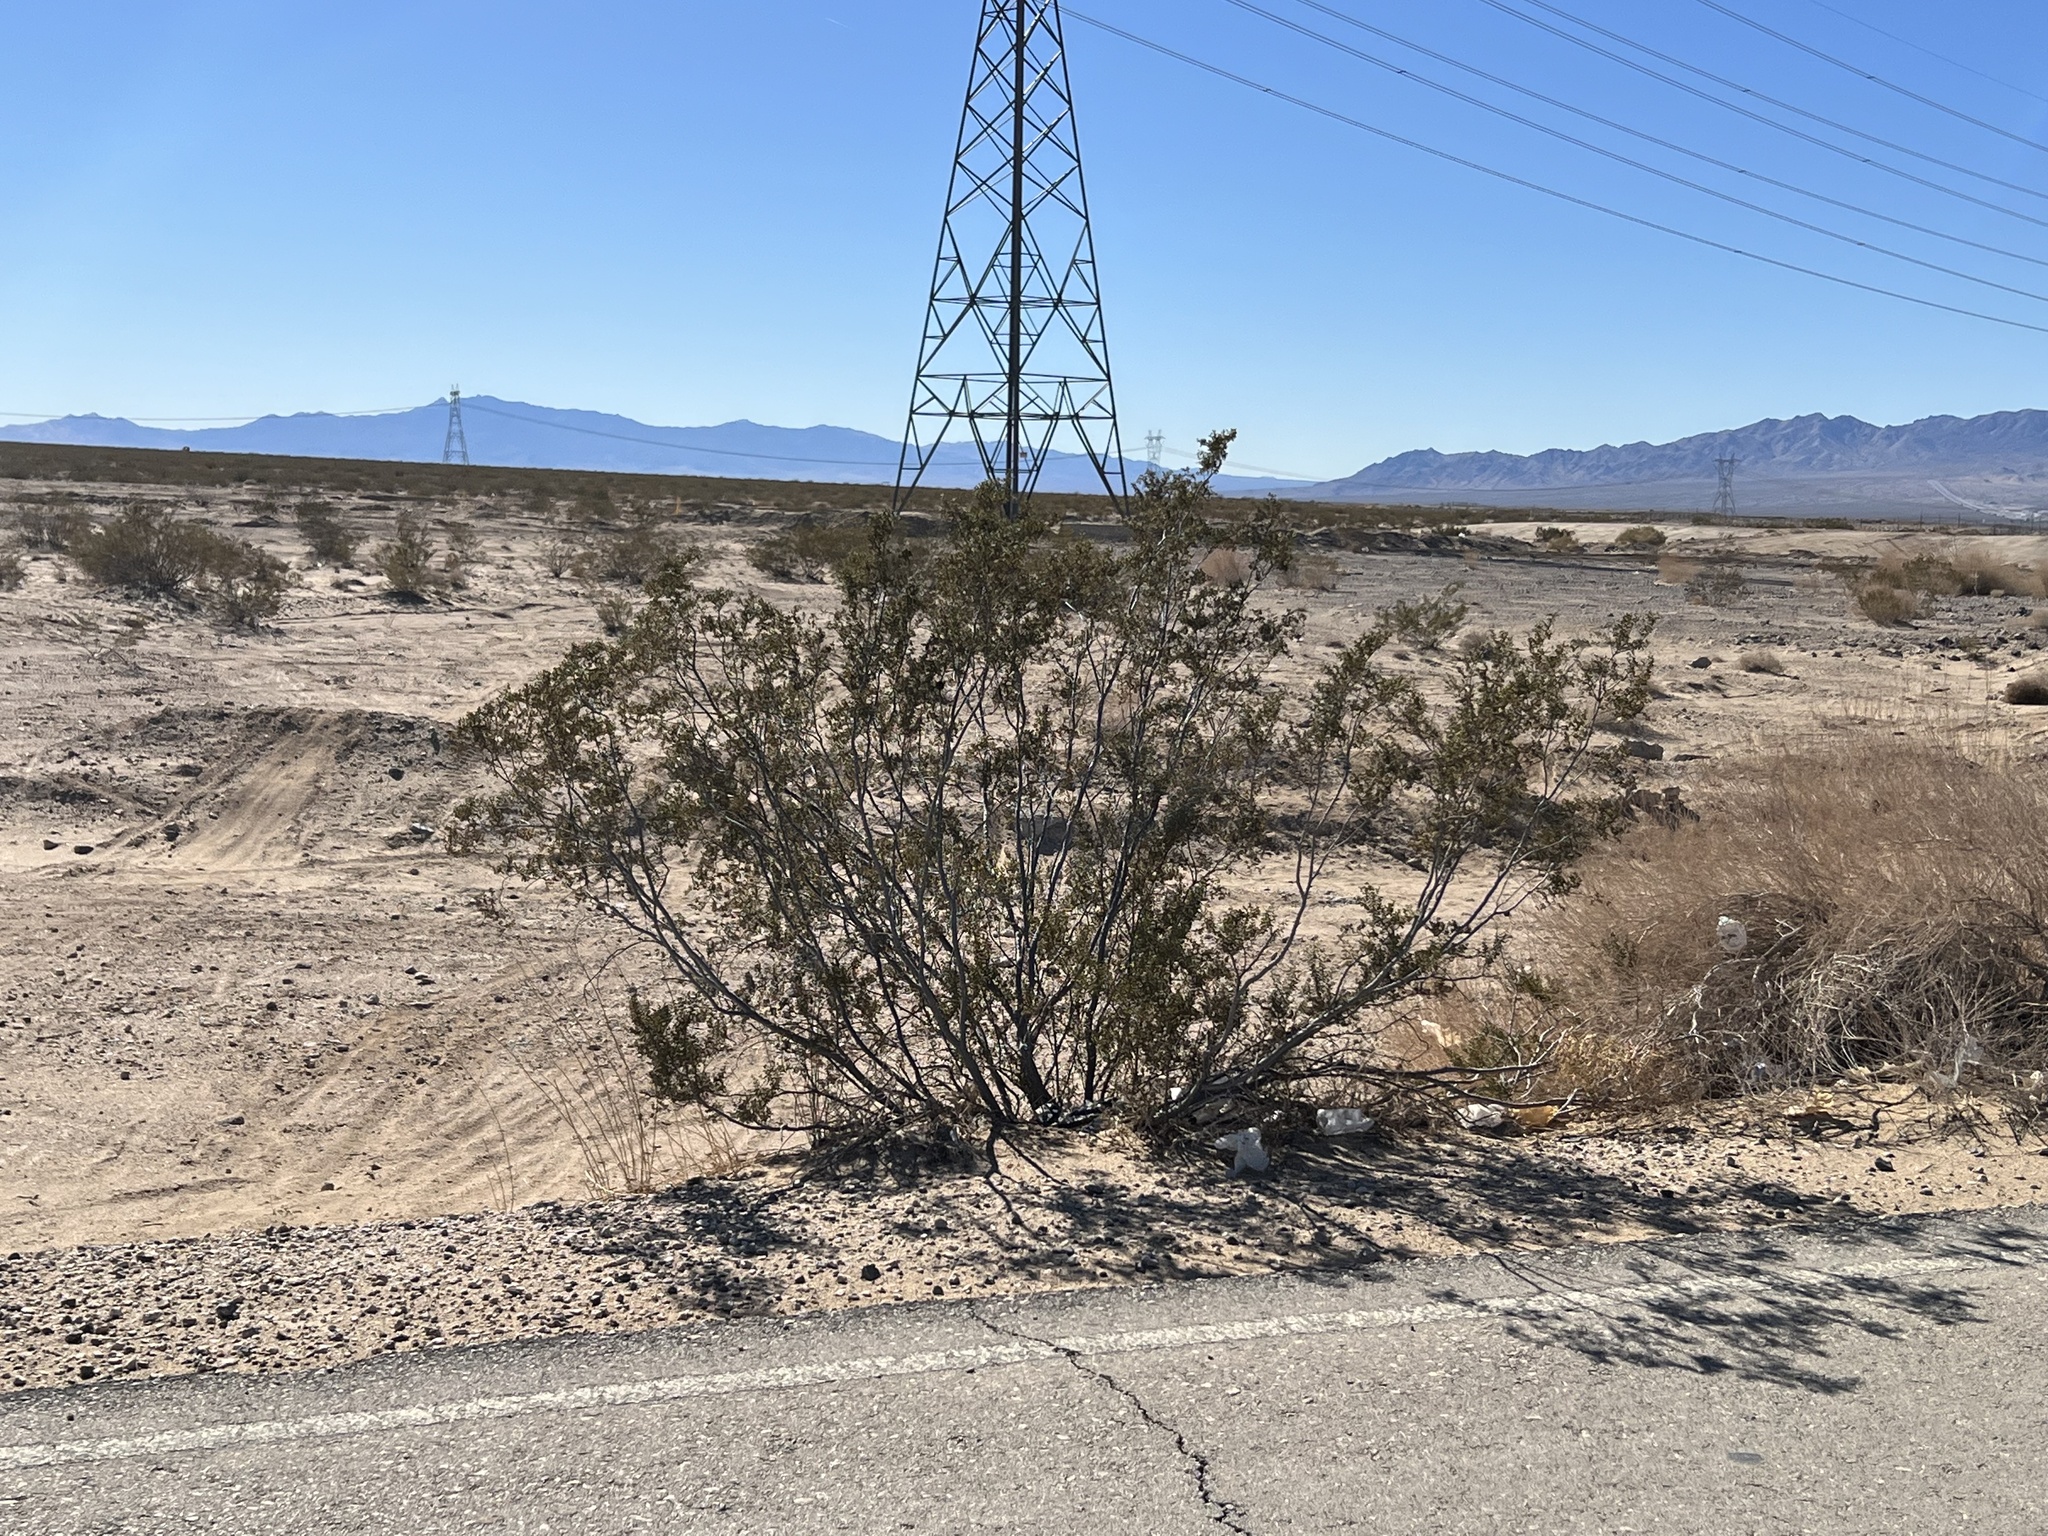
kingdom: Plantae
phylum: Tracheophyta
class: Magnoliopsida
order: Zygophyllales
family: Zygophyllaceae
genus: Larrea
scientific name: Larrea tridentata
